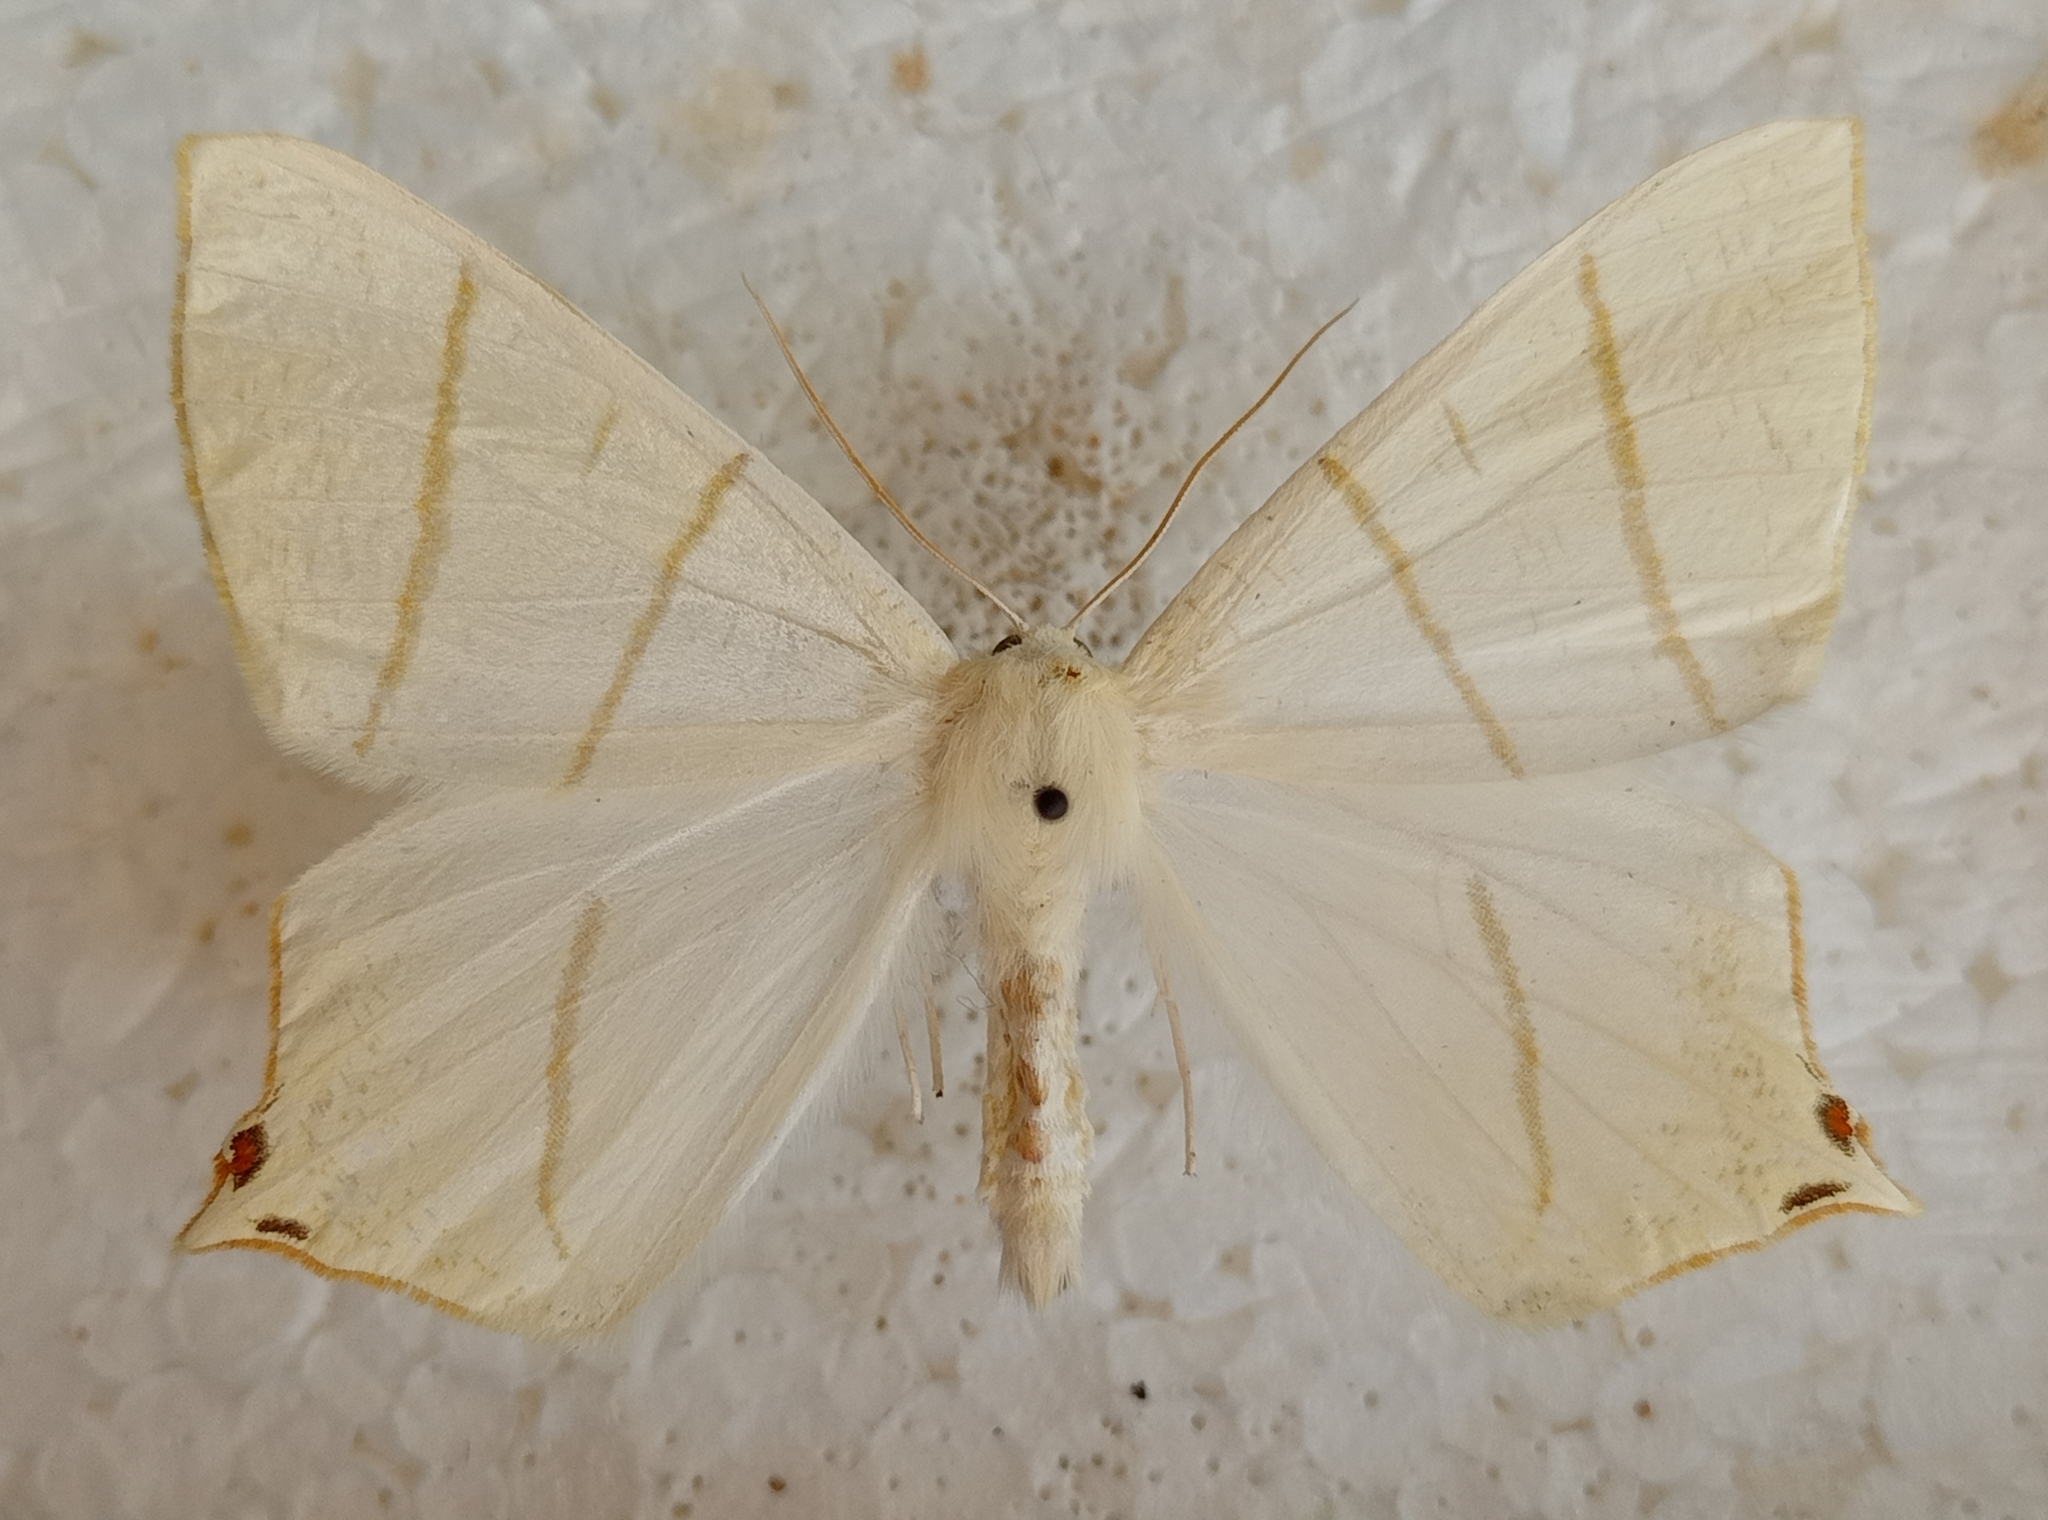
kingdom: Animalia
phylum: Arthropoda
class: Insecta
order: Lepidoptera
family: Geometridae
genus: Ourapteryx
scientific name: Ourapteryx sambucaria
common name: Swallow-tailed moth
